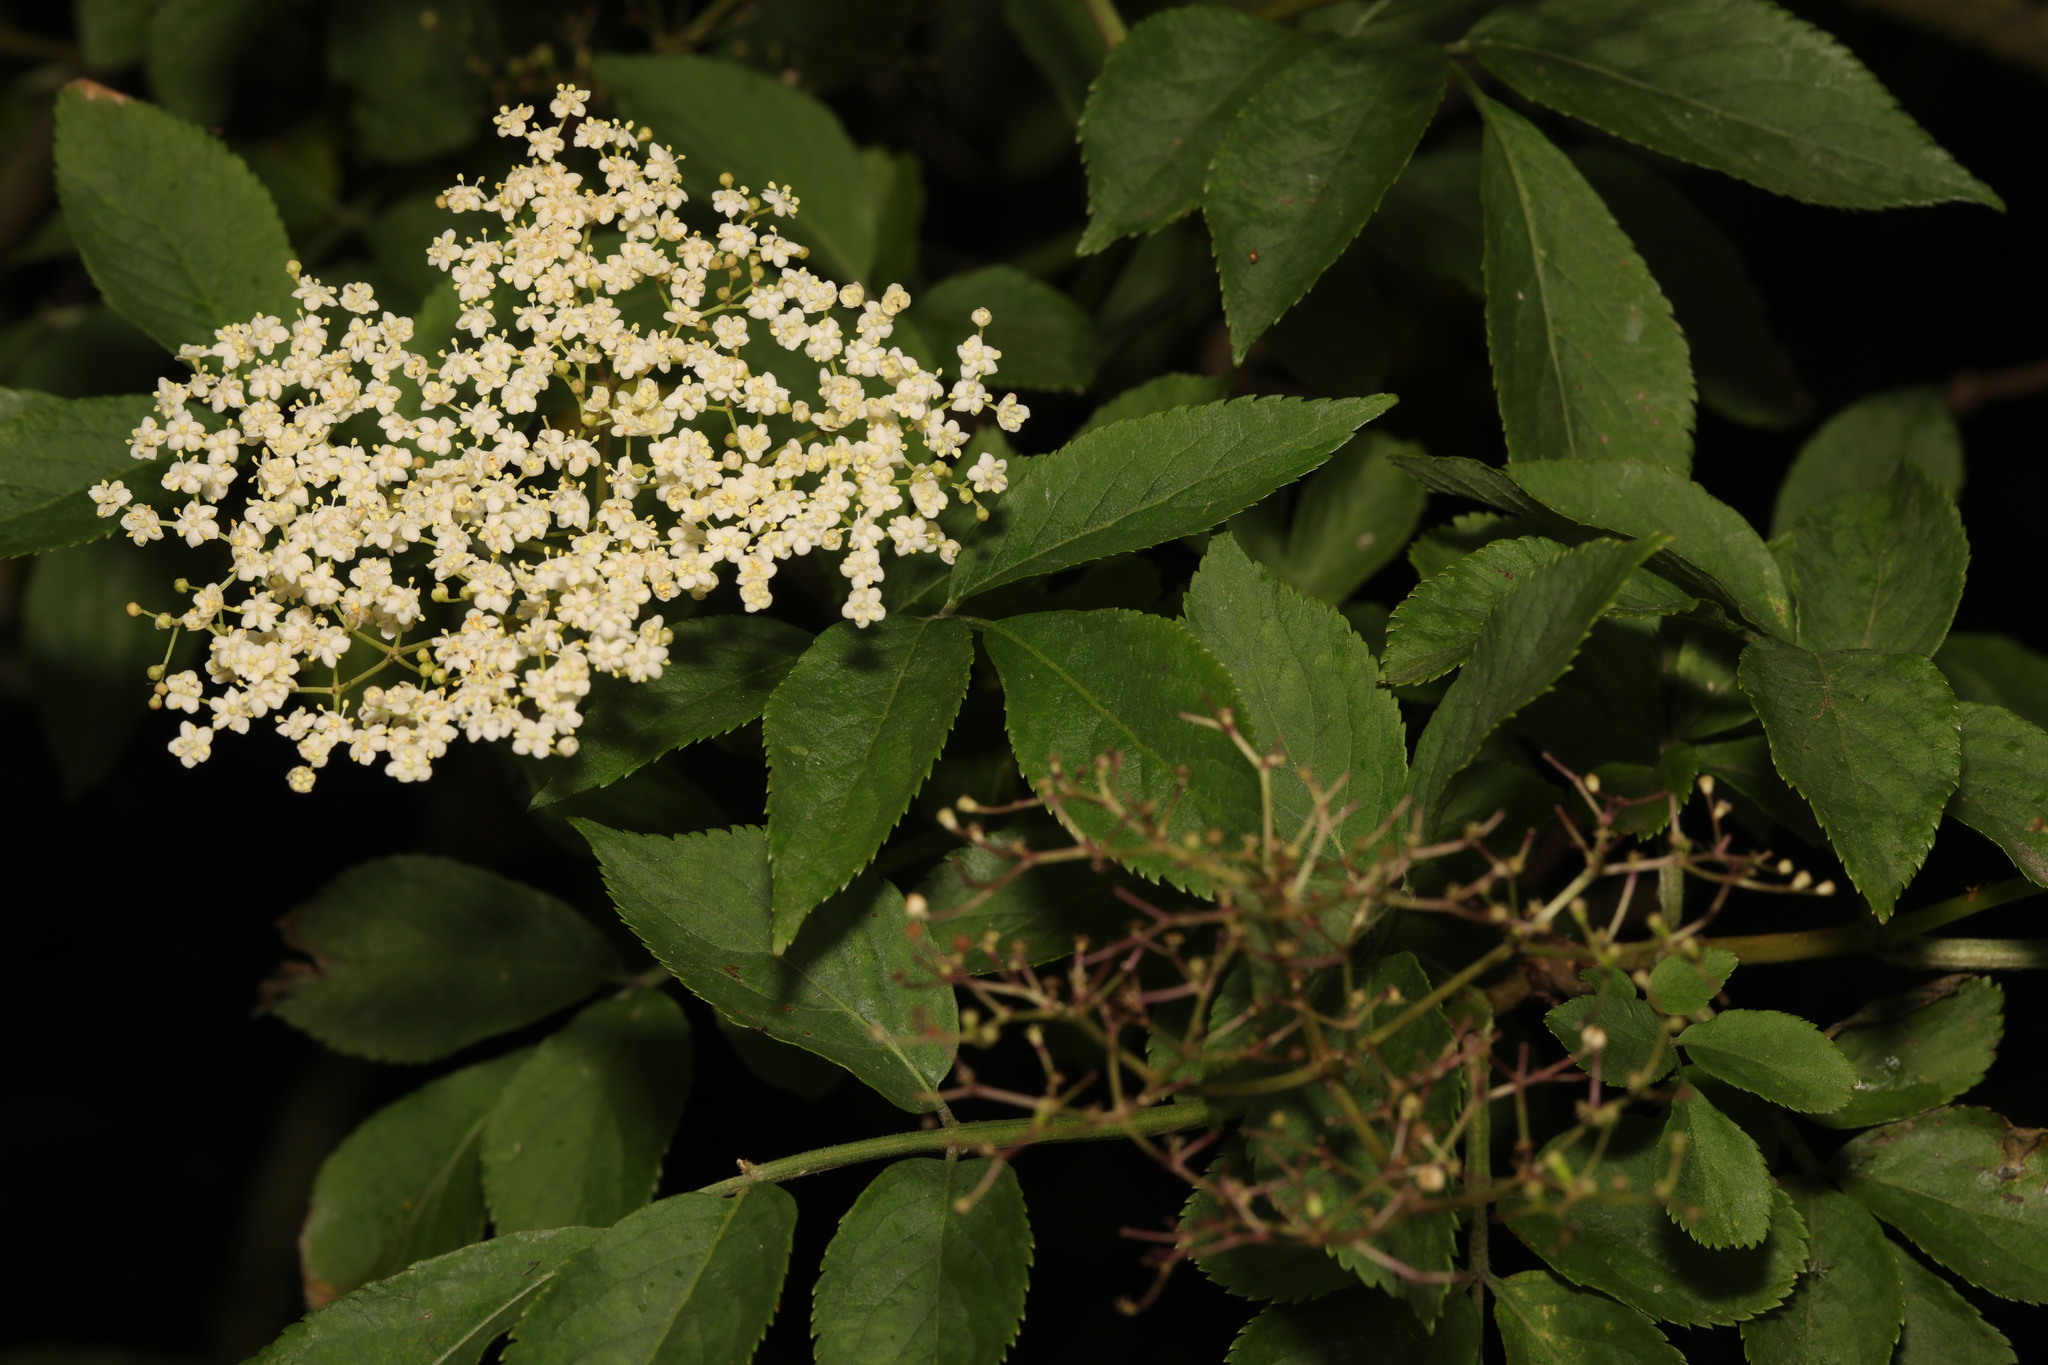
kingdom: Plantae
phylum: Tracheophyta
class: Magnoliopsida
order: Dipsacales
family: Viburnaceae
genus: Sambucus
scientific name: Sambucus nigra
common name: Elder
